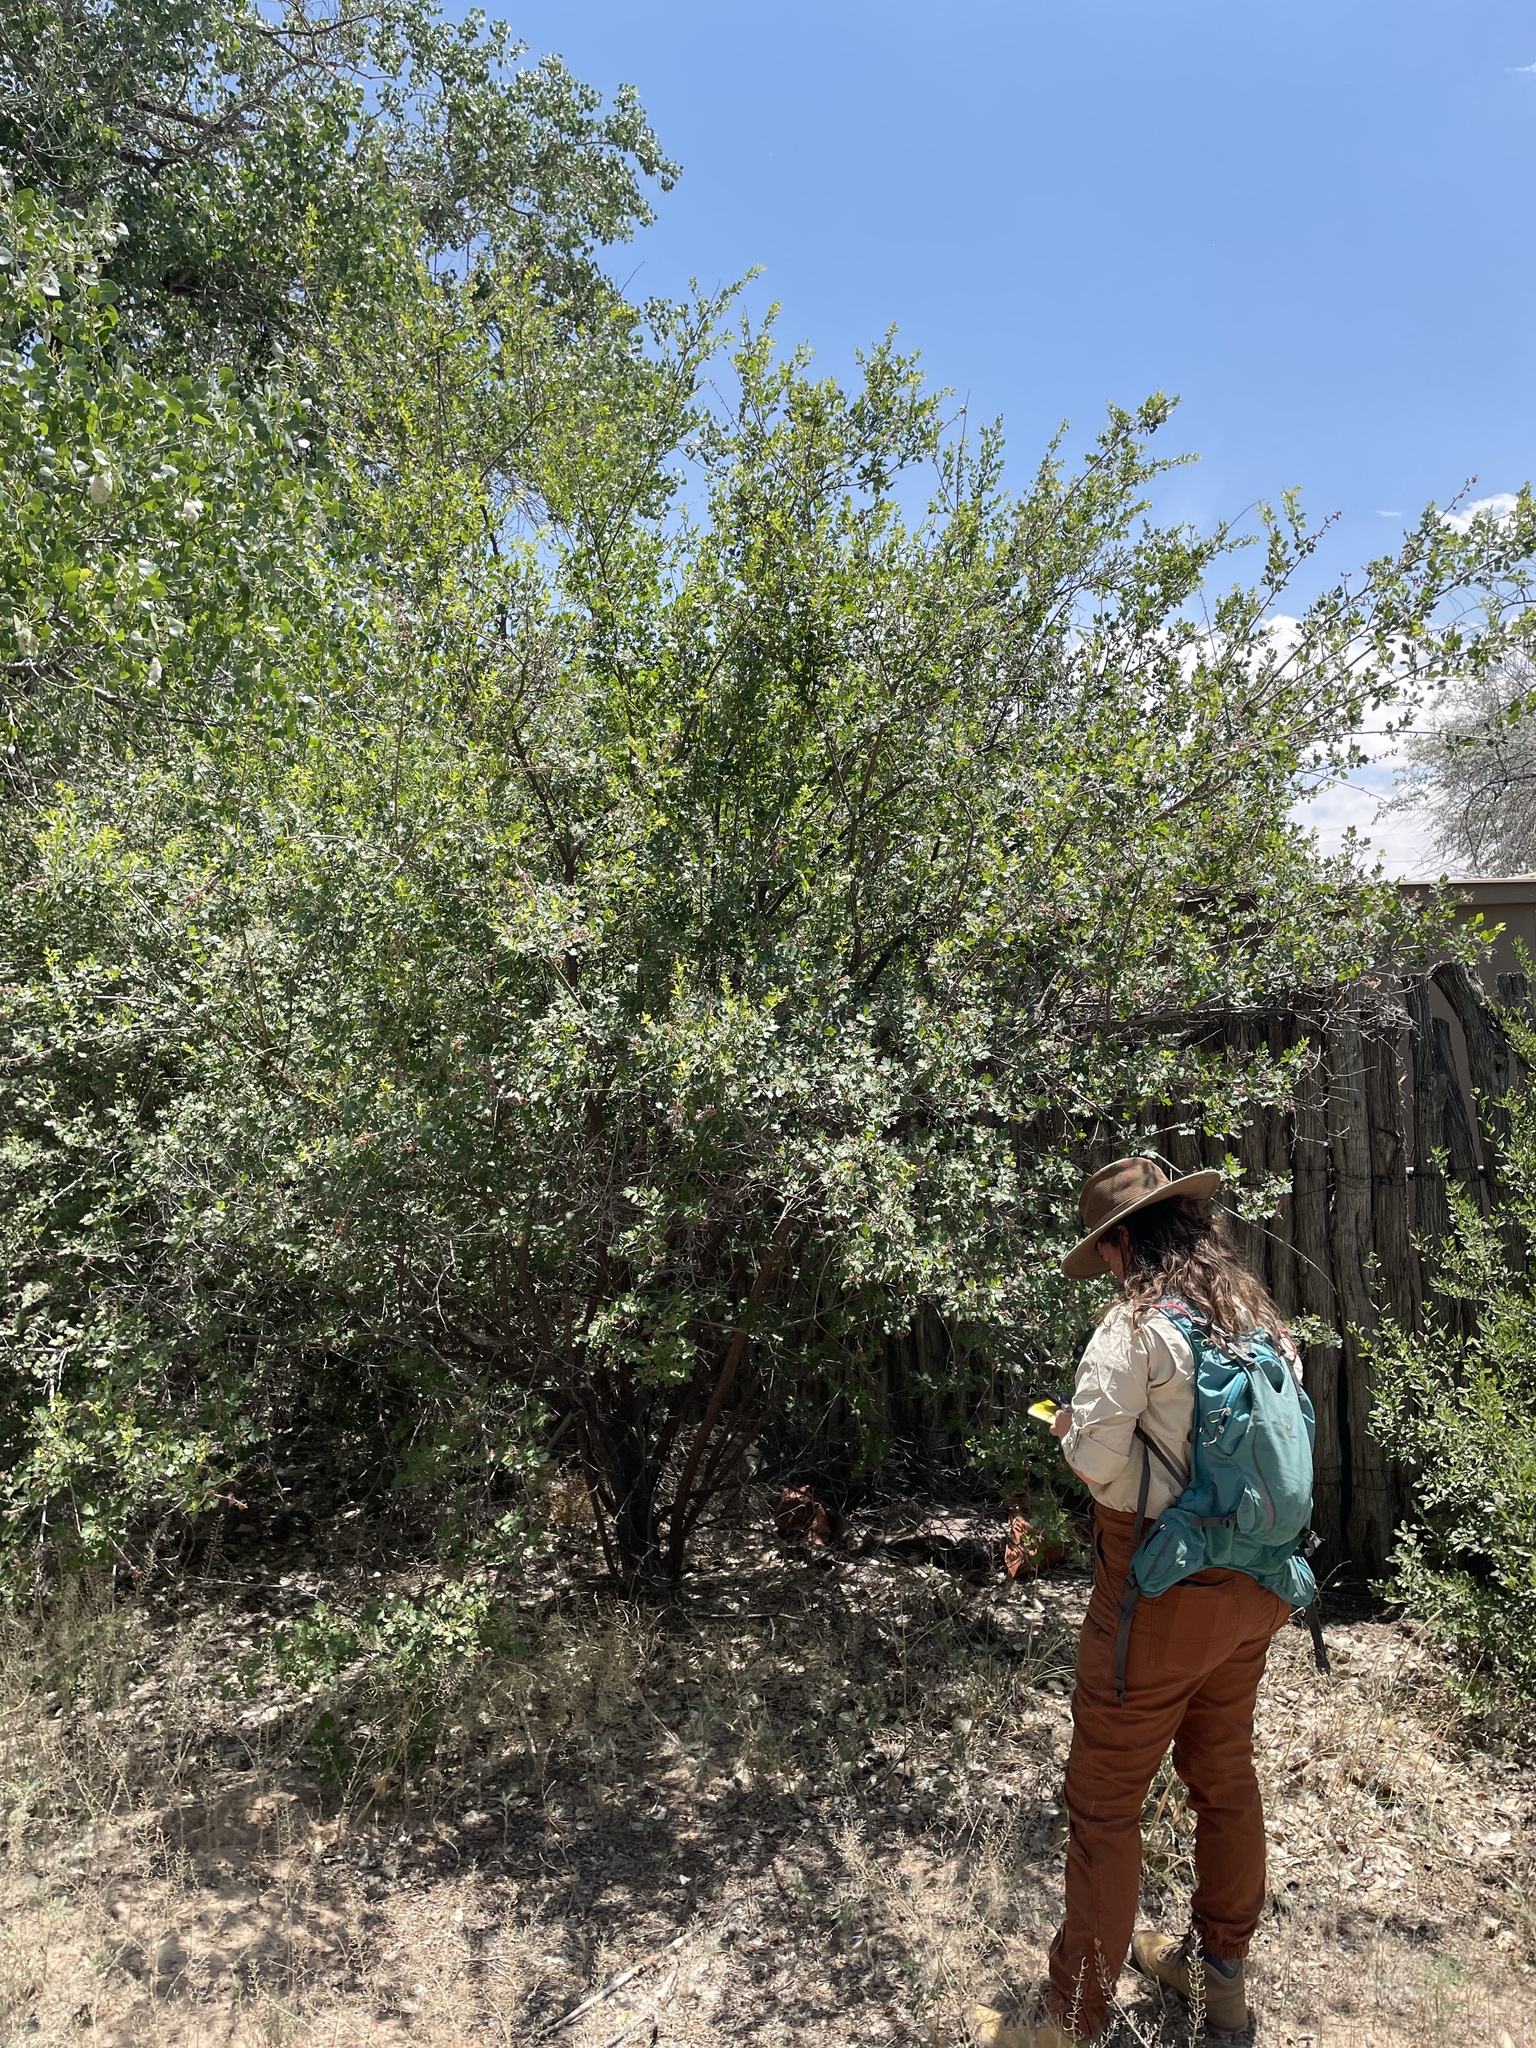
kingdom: Plantae
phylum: Tracheophyta
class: Magnoliopsida
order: Sapindales
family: Anacardiaceae
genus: Rhus
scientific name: Rhus trilobata
